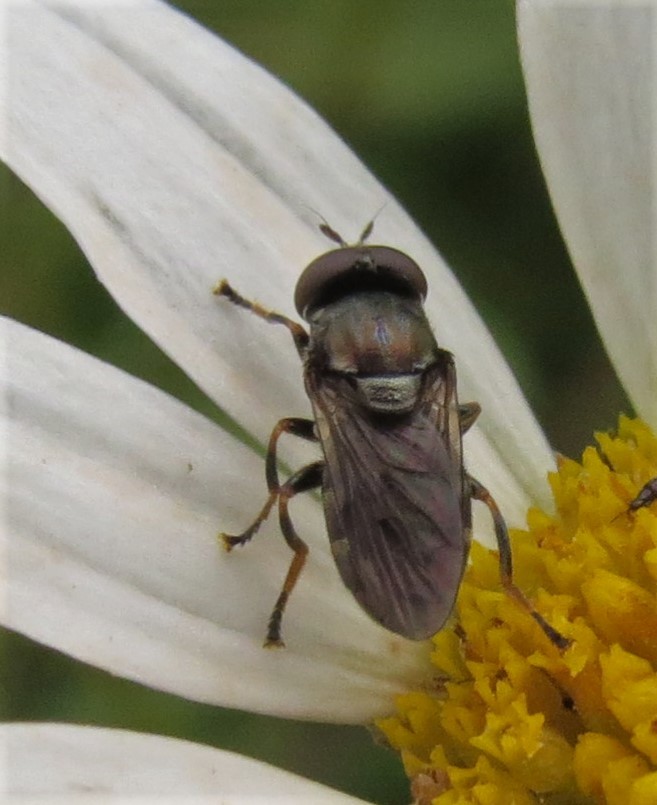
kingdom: Animalia
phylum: Arthropoda
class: Insecta
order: Diptera
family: Syrphidae
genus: Orthonevra
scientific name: Orthonevra feei
